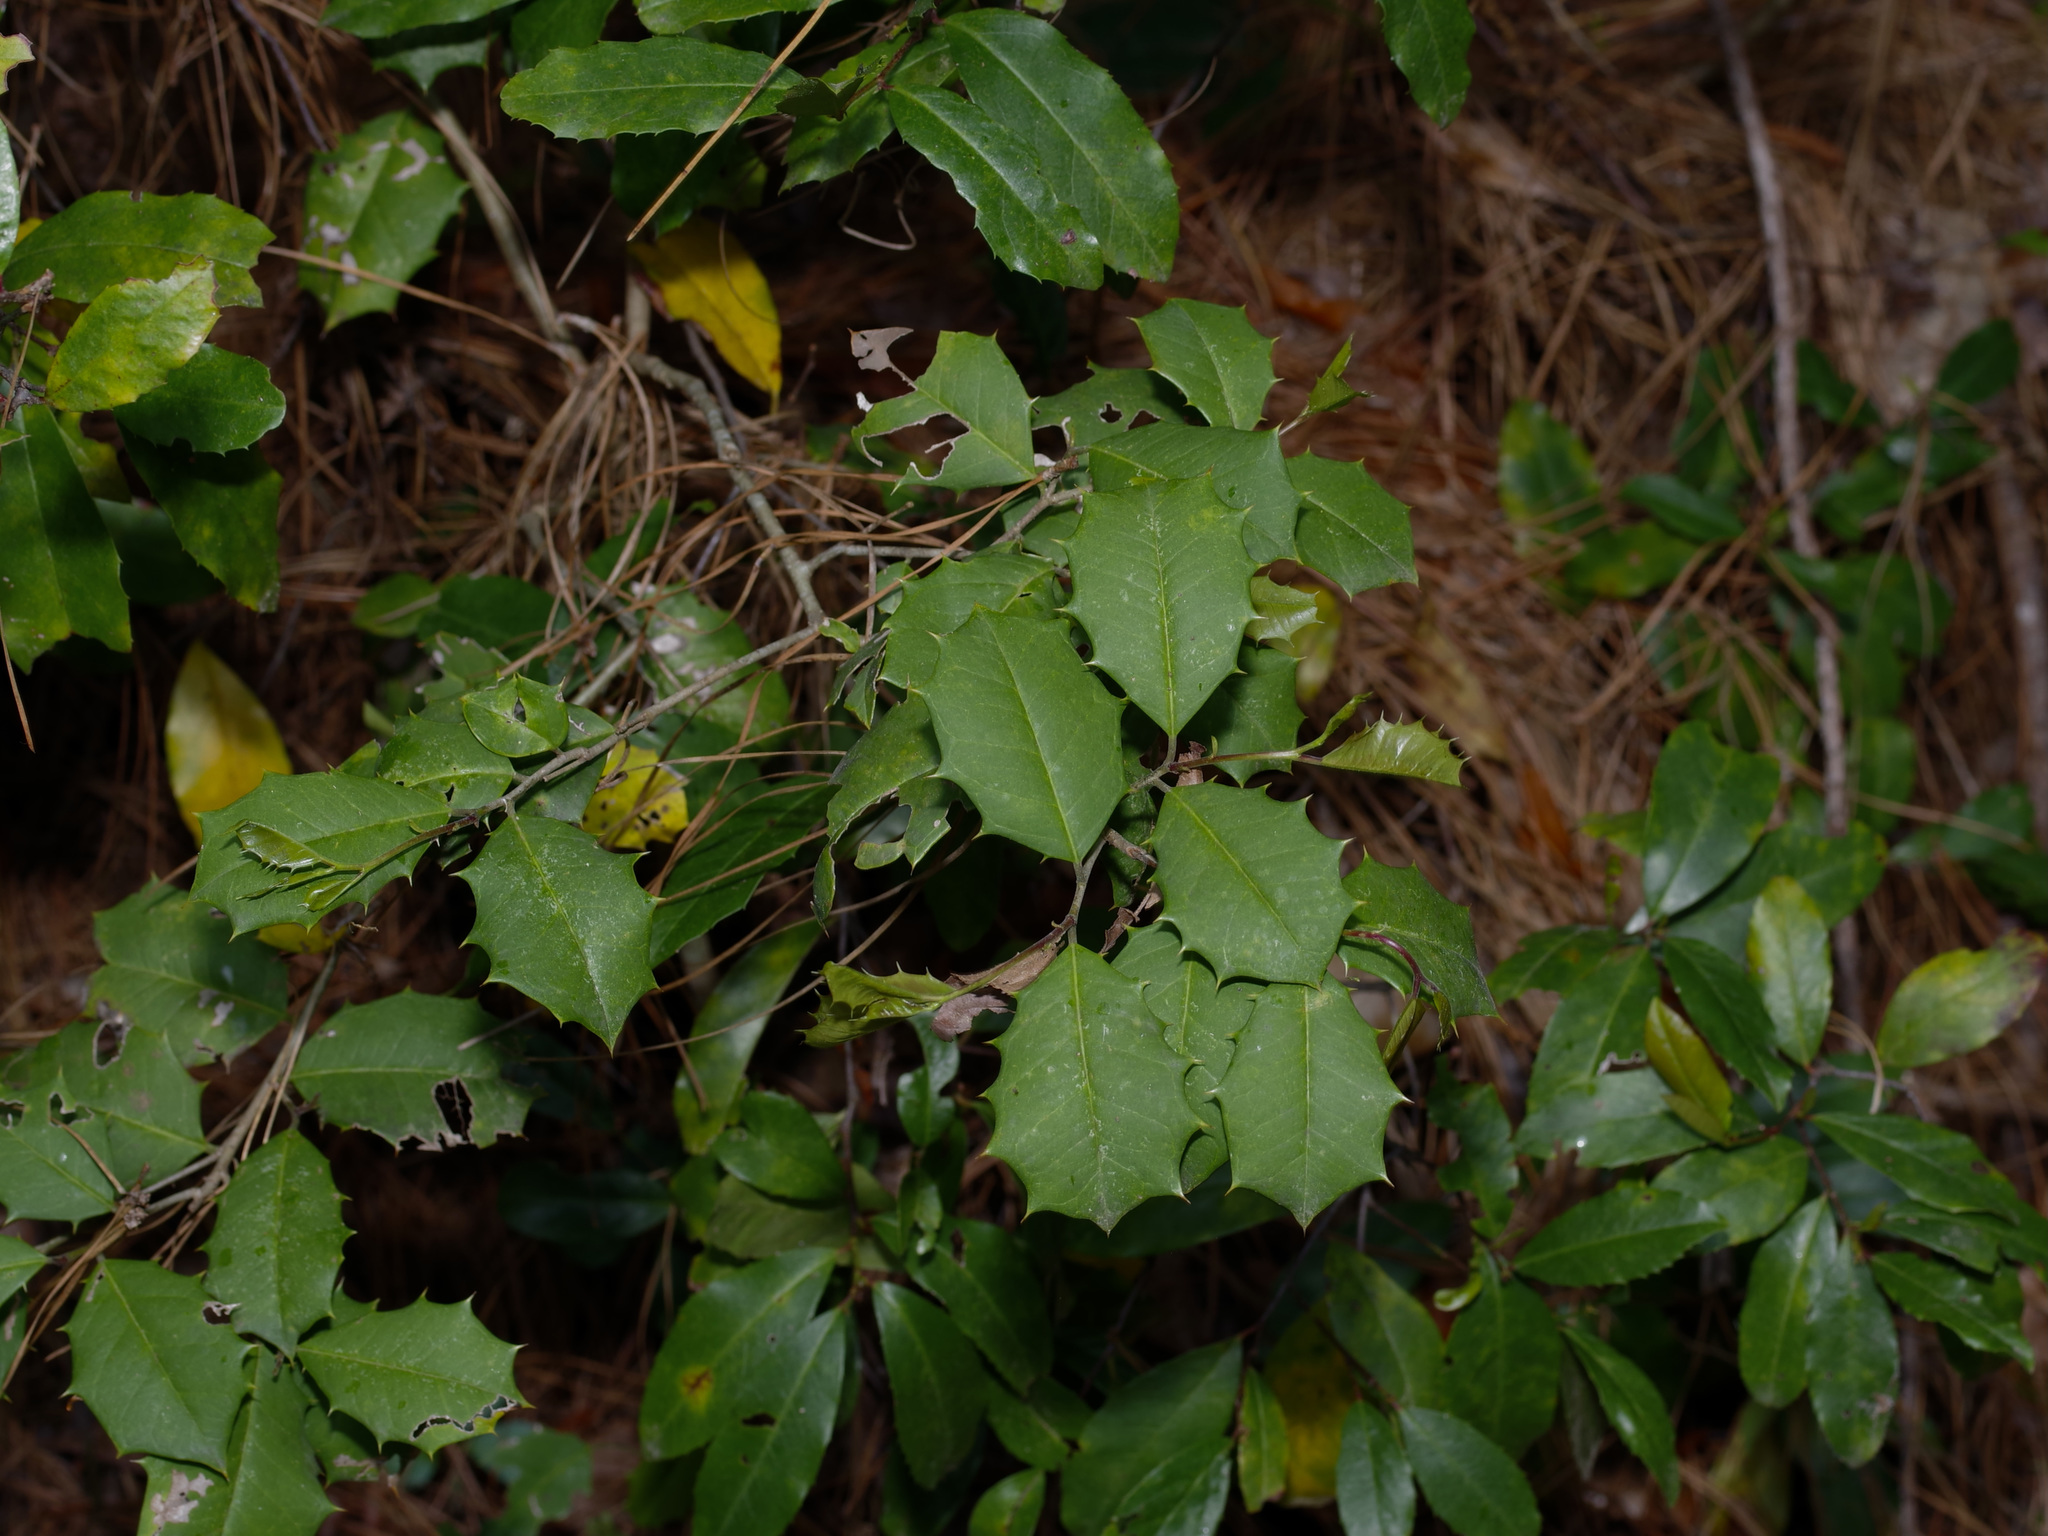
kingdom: Plantae
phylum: Tracheophyta
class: Magnoliopsida
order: Aquifoliales
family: Aquifoliaceae
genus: Ilex
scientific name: Ilex opaca
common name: American holly
